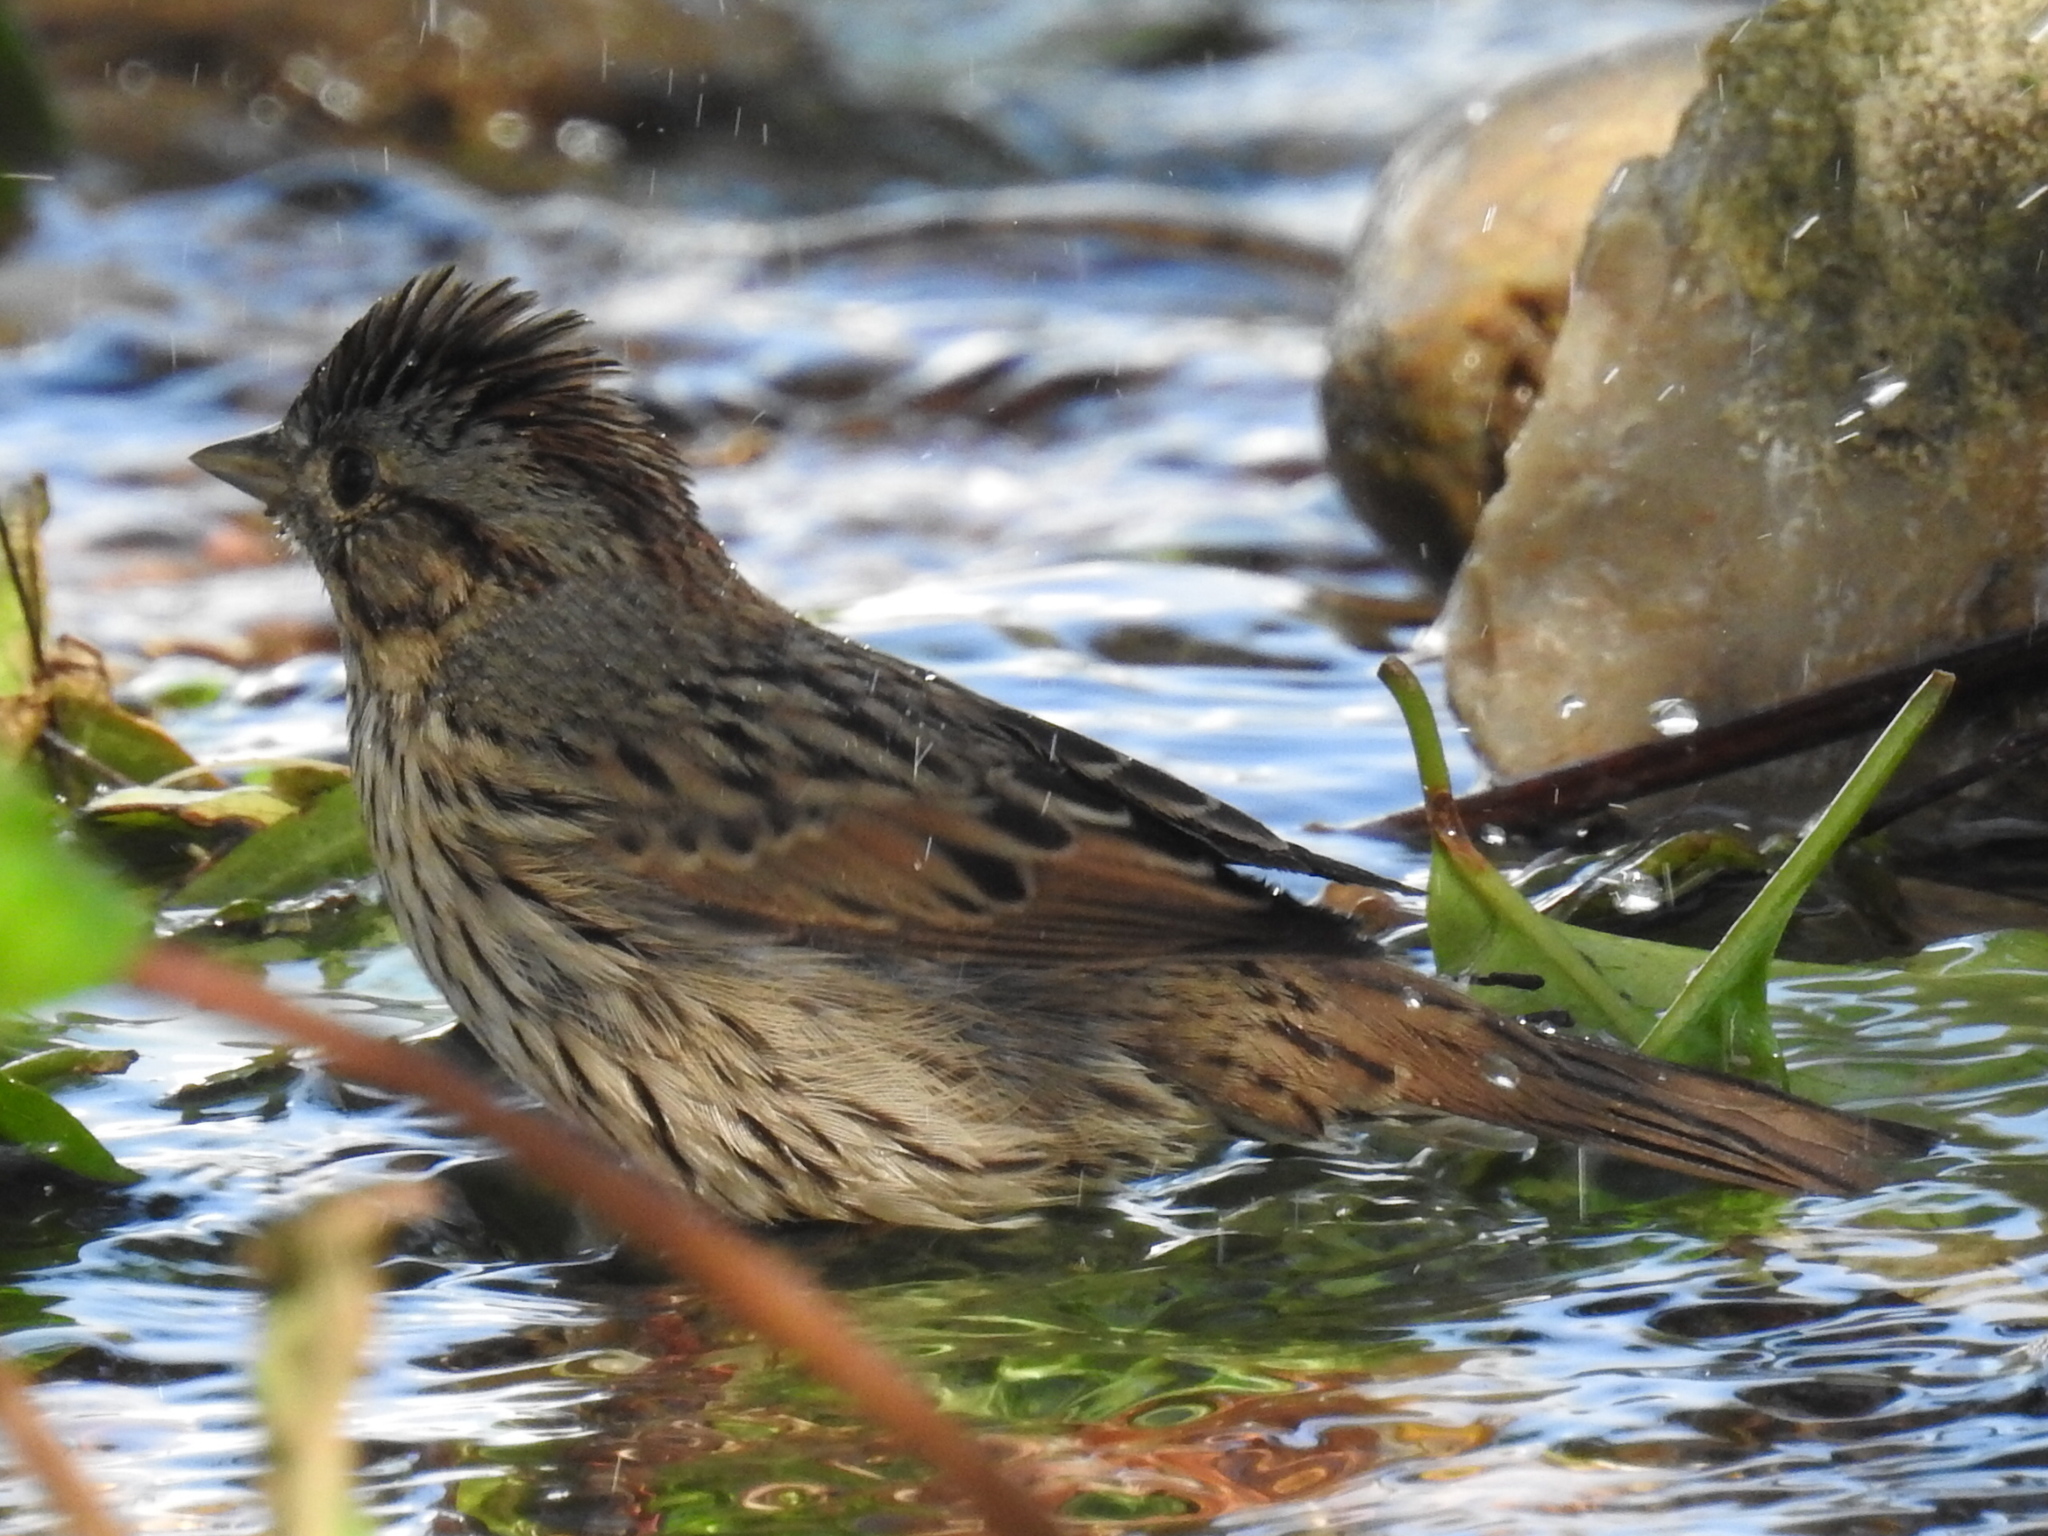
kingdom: Animalia
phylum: Chordata
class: Aves
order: Passeriformes
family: Passerellidae
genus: Melospiza
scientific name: Melospiza lincolnii
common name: Lincoln's sparrow
